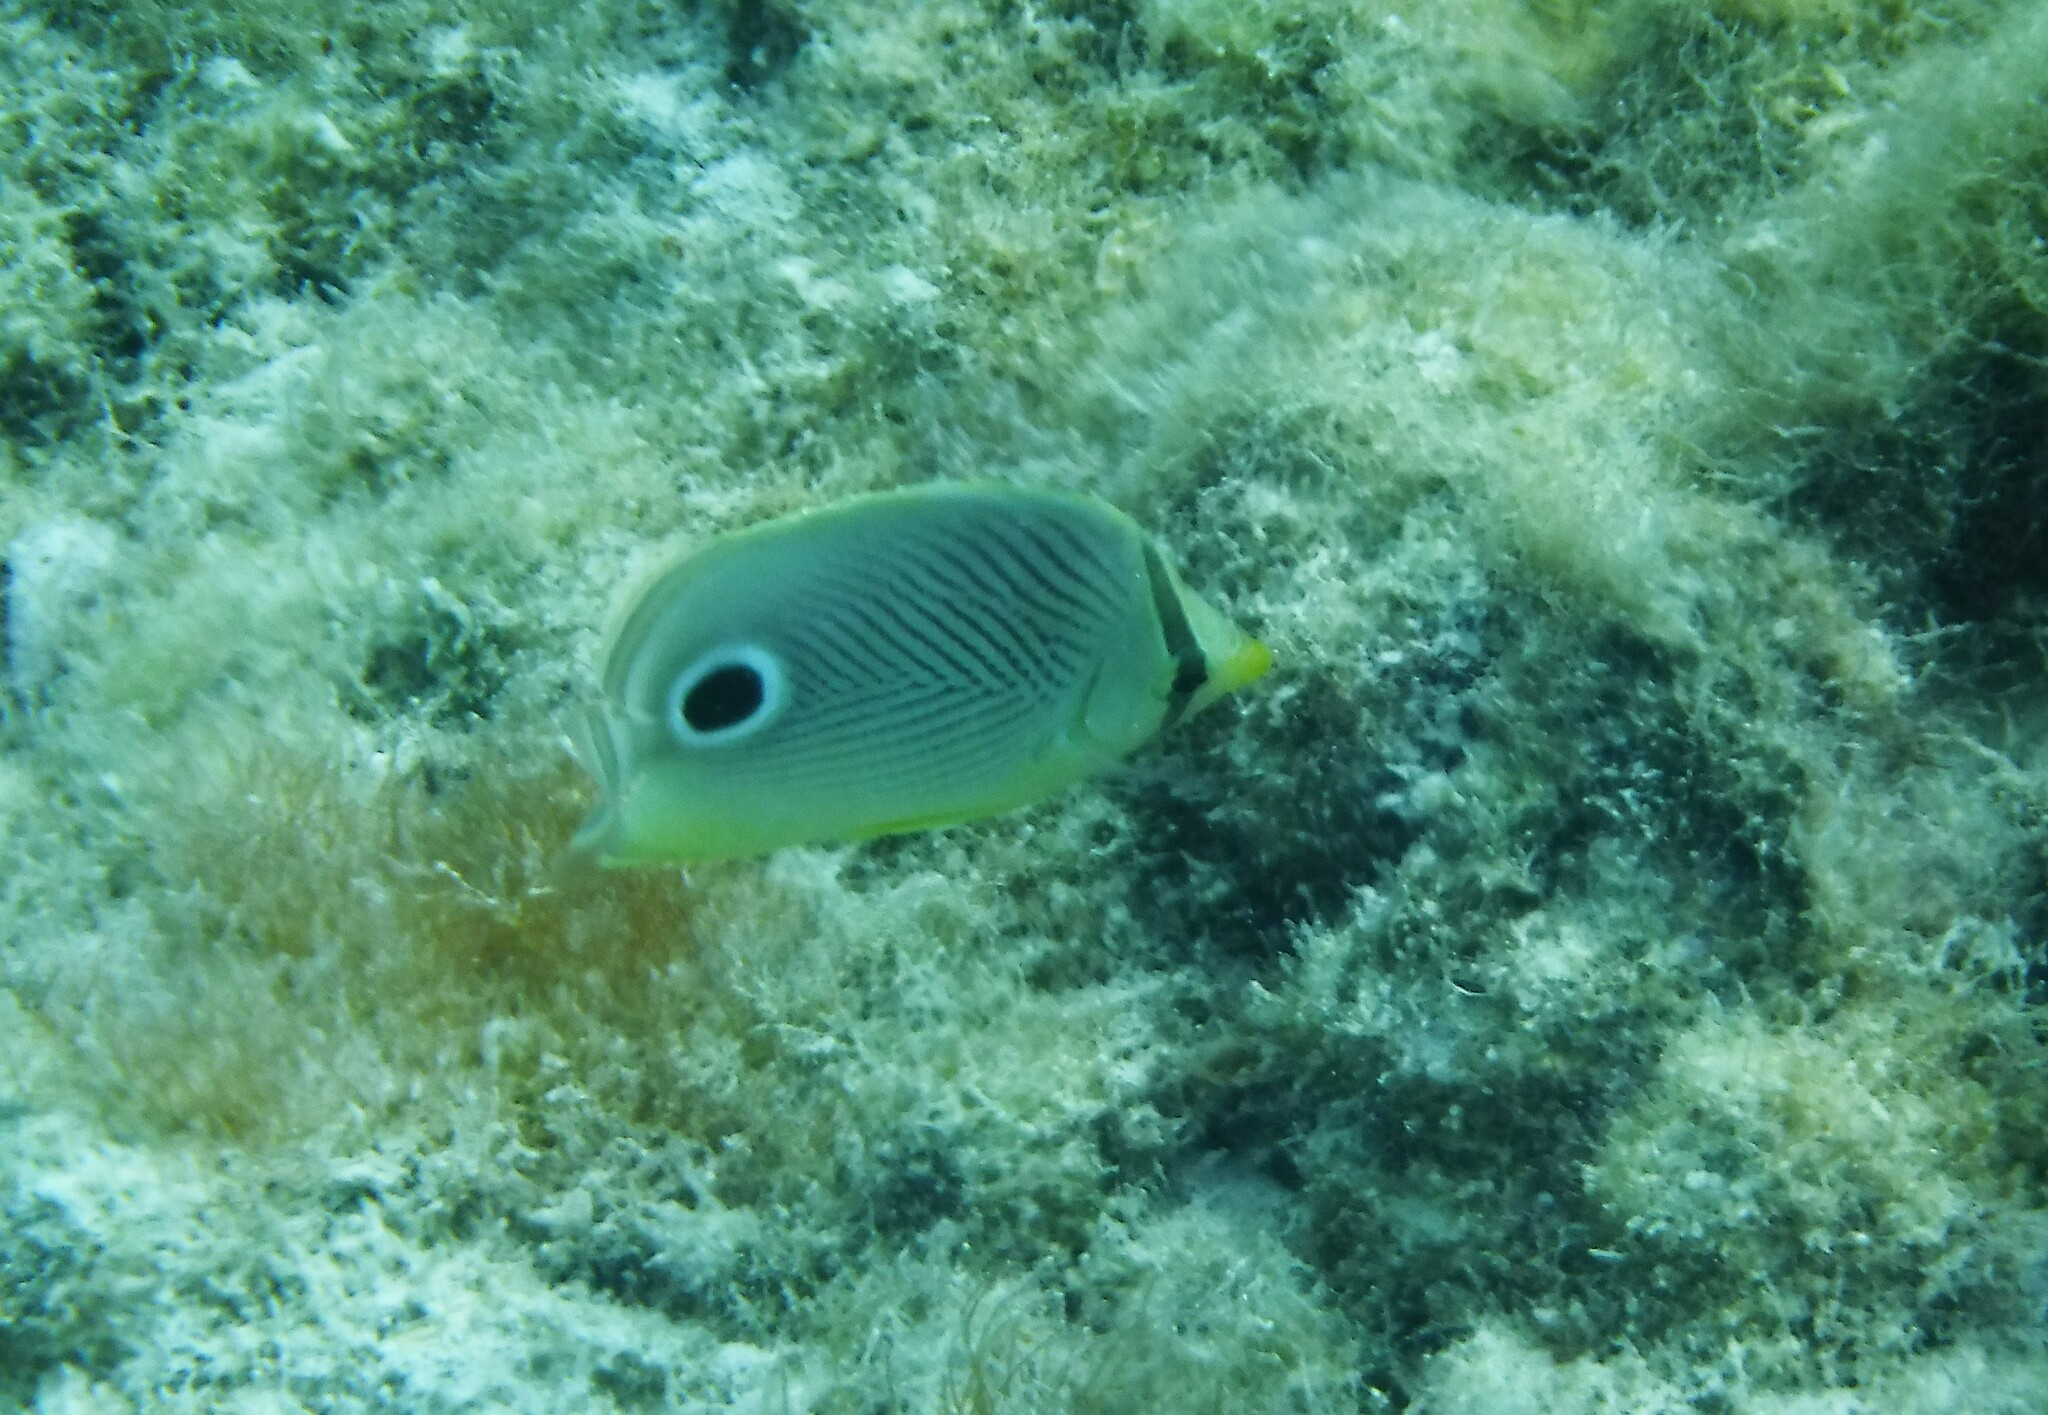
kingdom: Animalia
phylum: Chordata
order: Perciformes
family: Chaetodontidae
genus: Chaetodon
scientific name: Chaetodon capistratus
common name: Kete
